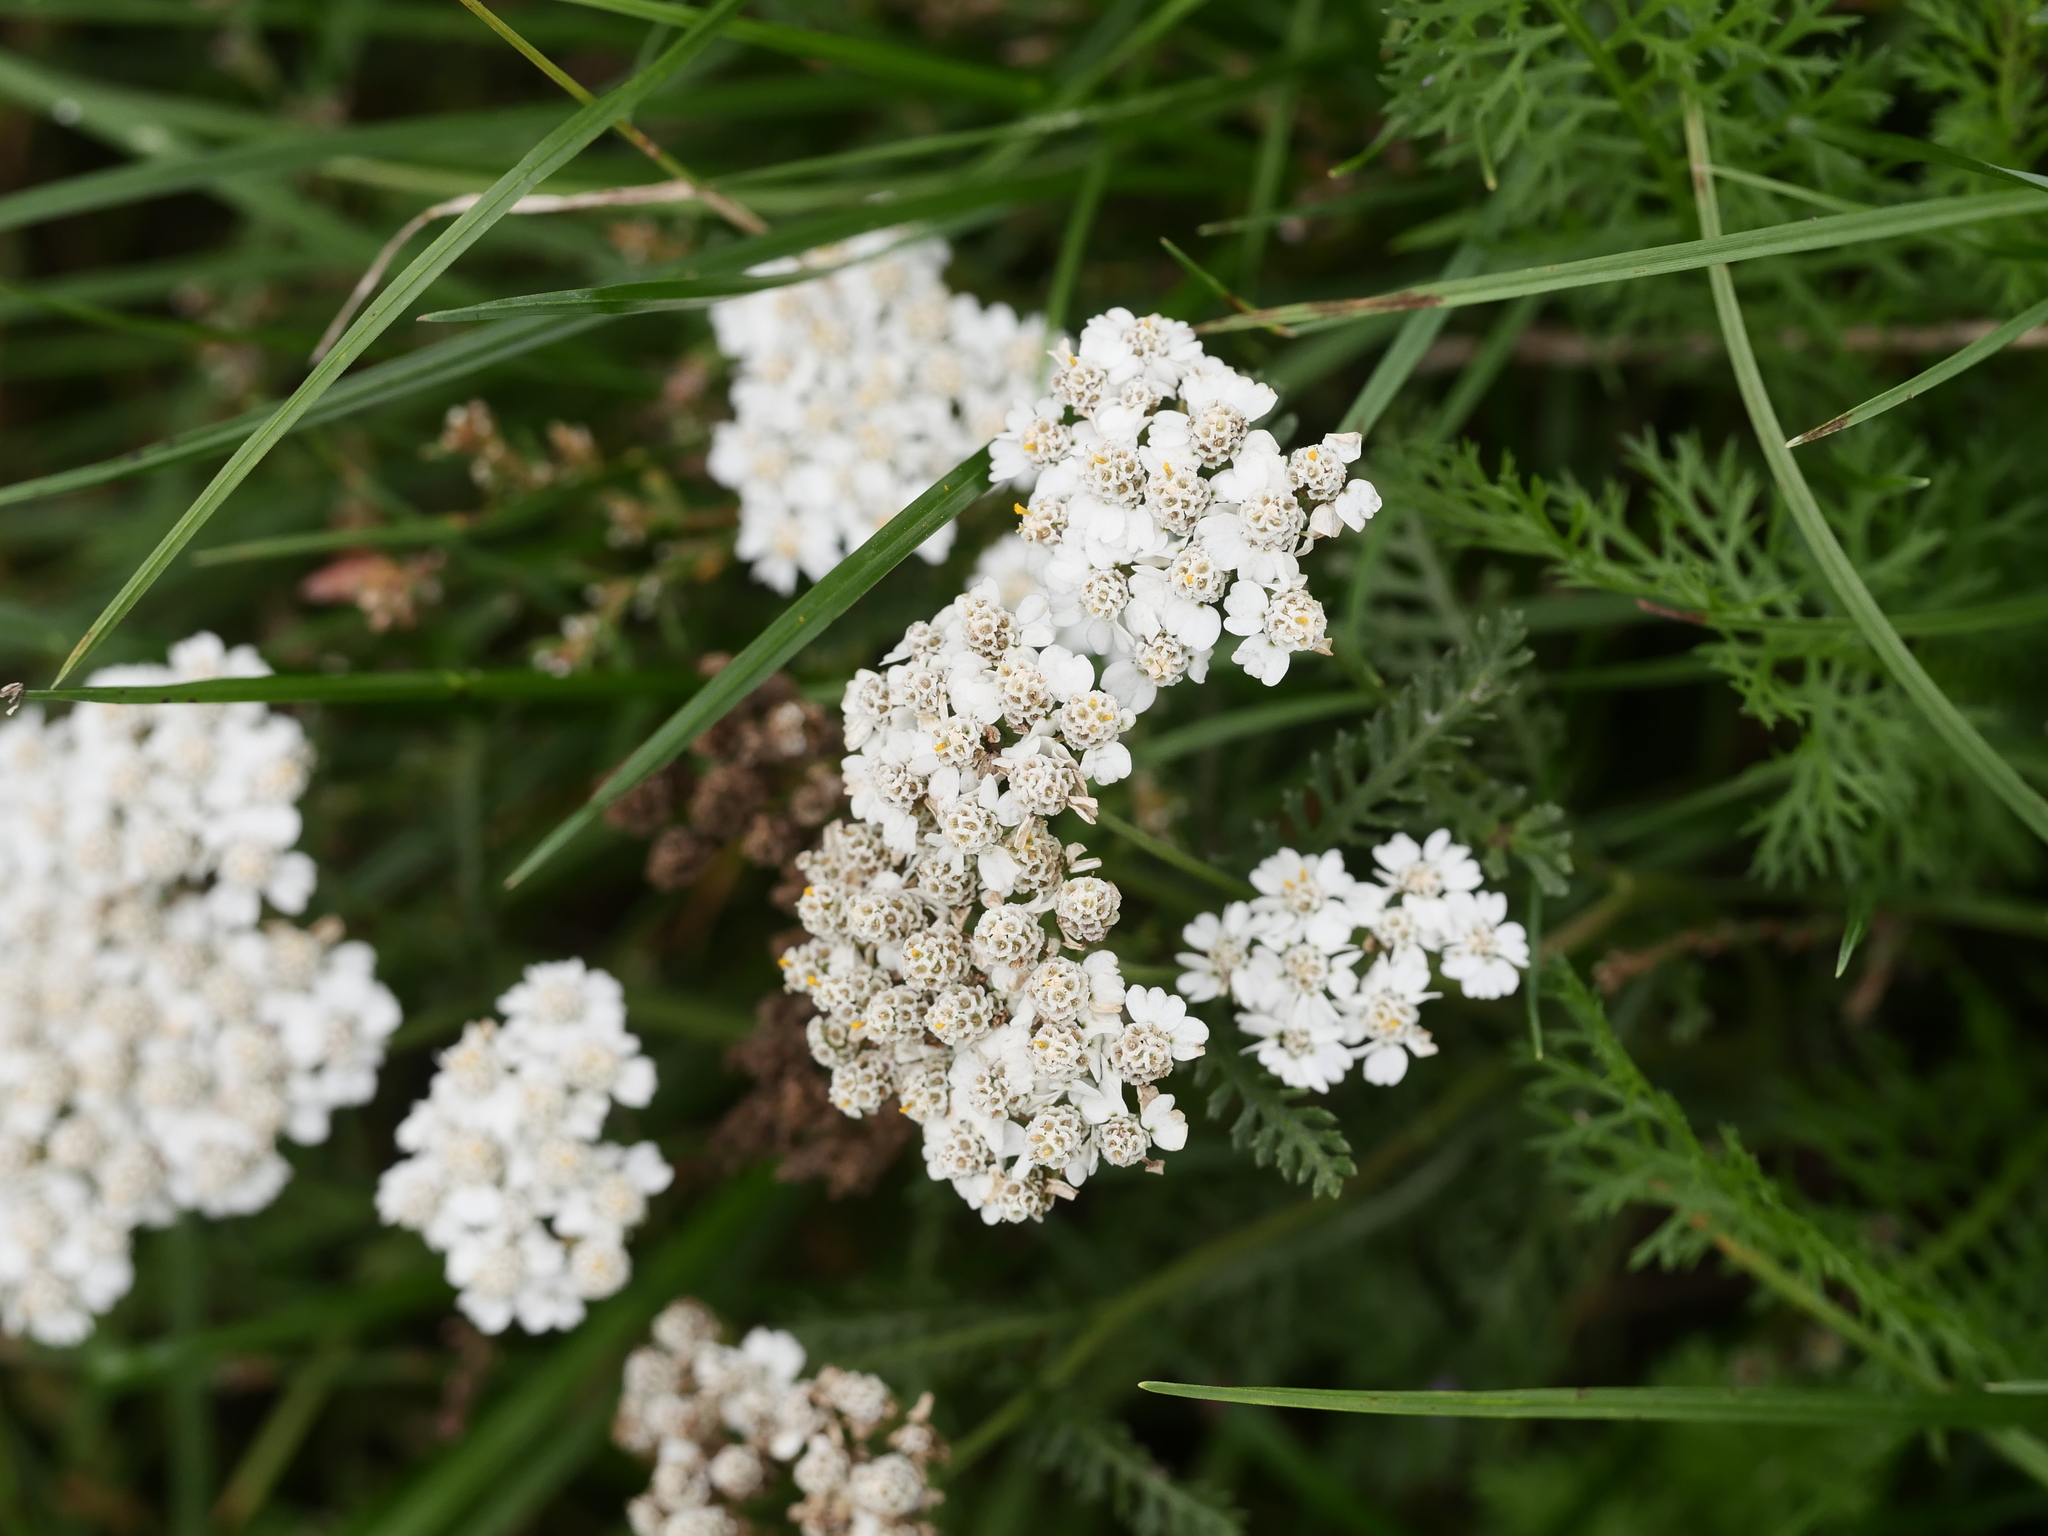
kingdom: Plantae
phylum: Tracheophyta
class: Magnoliopsida
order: Asterales
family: Asteraceae
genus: Achillea
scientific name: Achillea millefolium
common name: Yarrow
